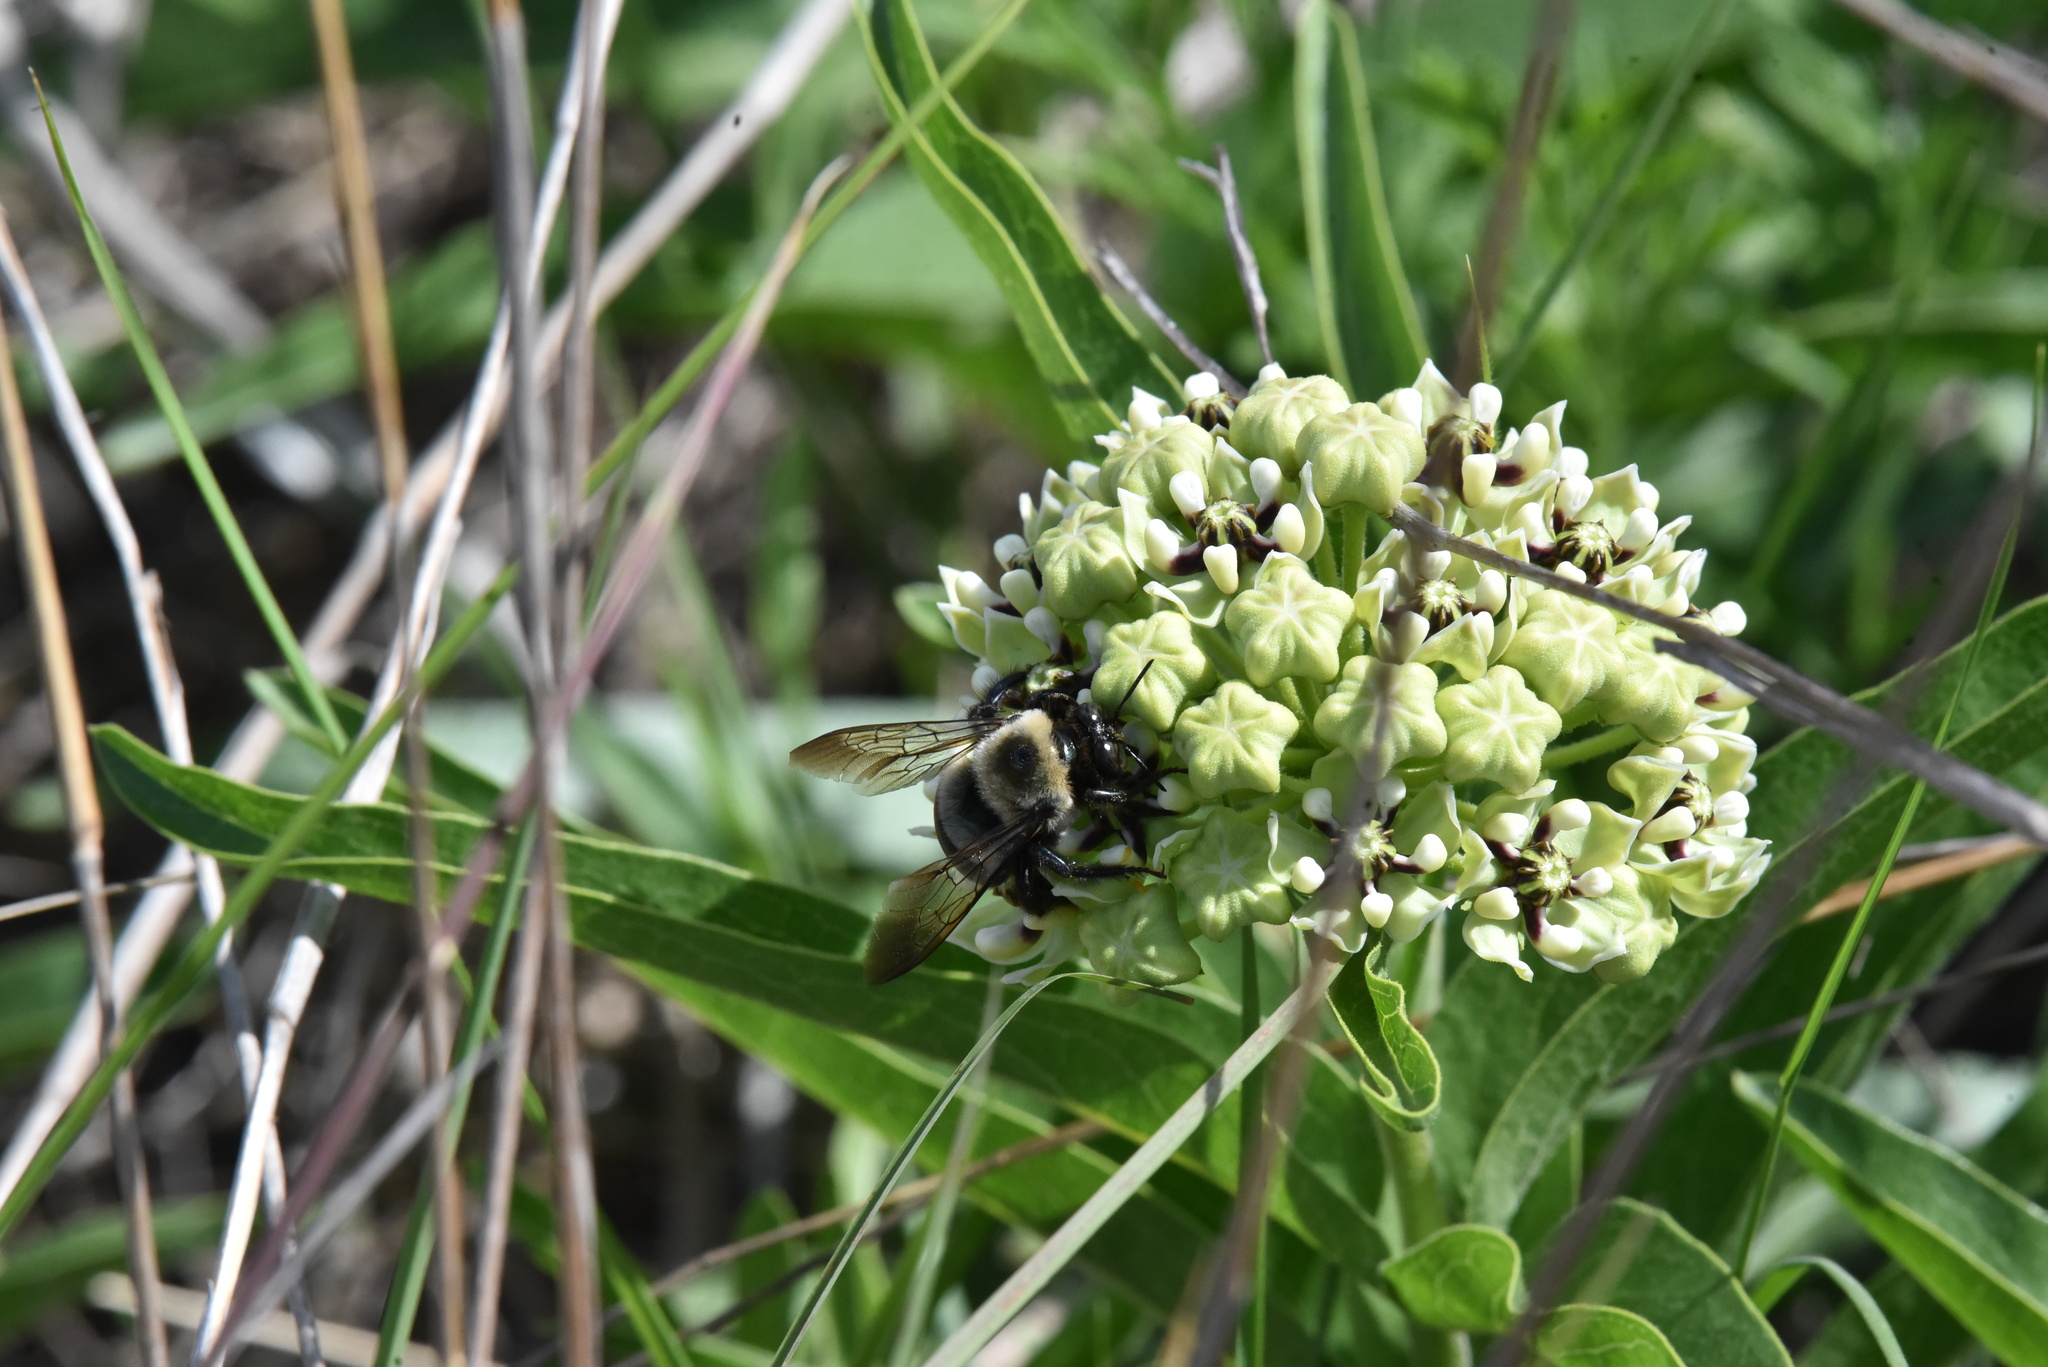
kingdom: Animalia
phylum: Arthropoda
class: Insecta
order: Hymenoptera
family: Apidae
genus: Xylocopa
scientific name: Xylocopa virginica
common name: Carpenter bee
